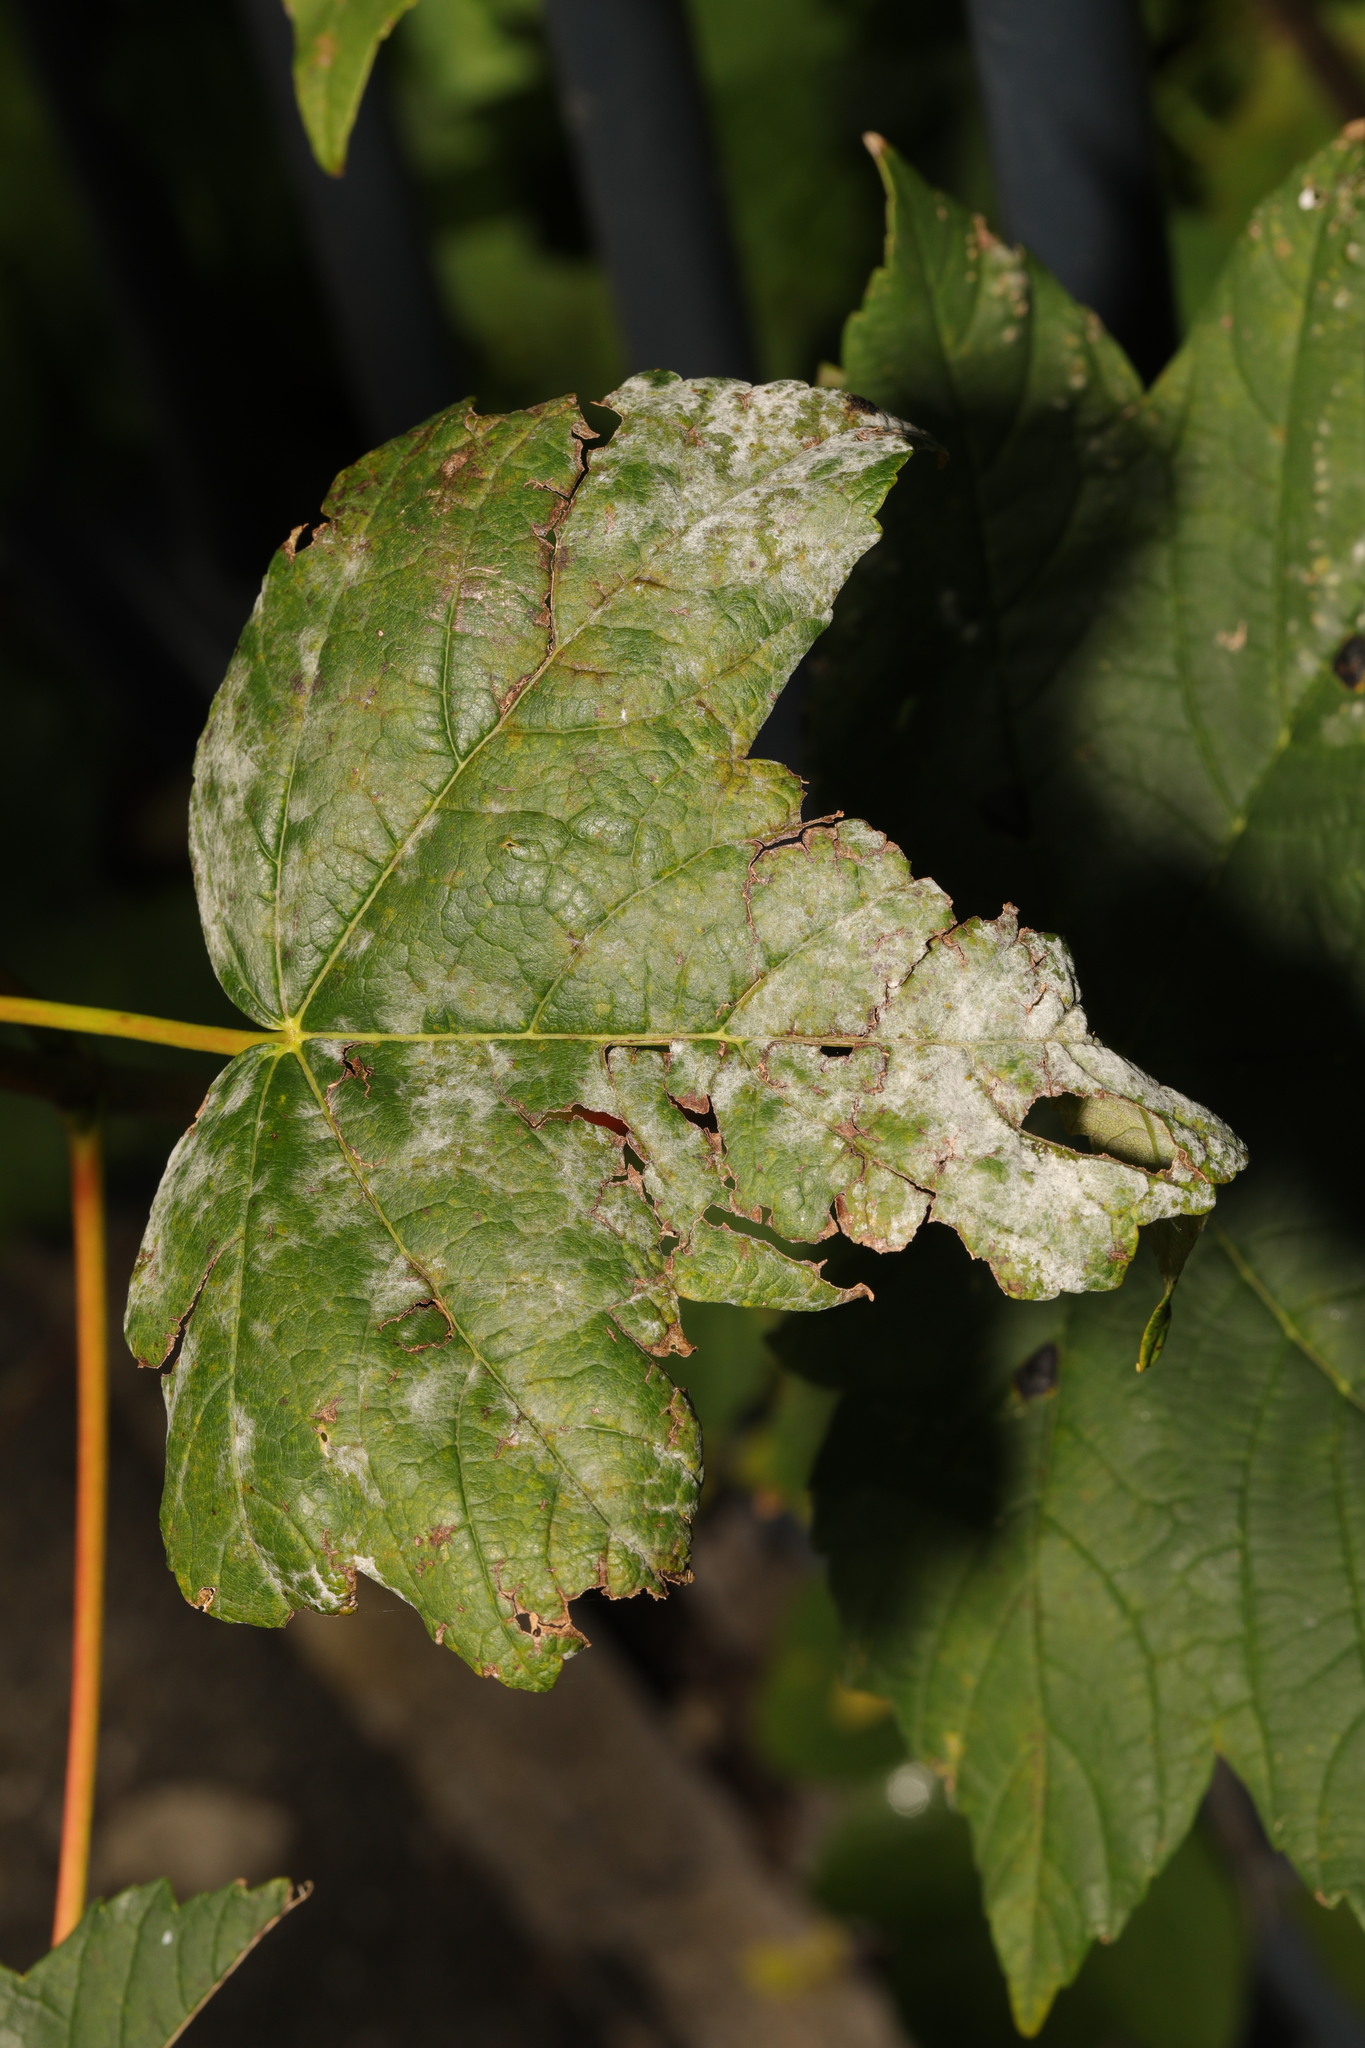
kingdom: Plantae
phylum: Tracheophyta
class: Magnoliopsida
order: Sapindales
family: Sapindaceae
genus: Acer
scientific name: Acer pseudoplatanus
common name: Sycamore
